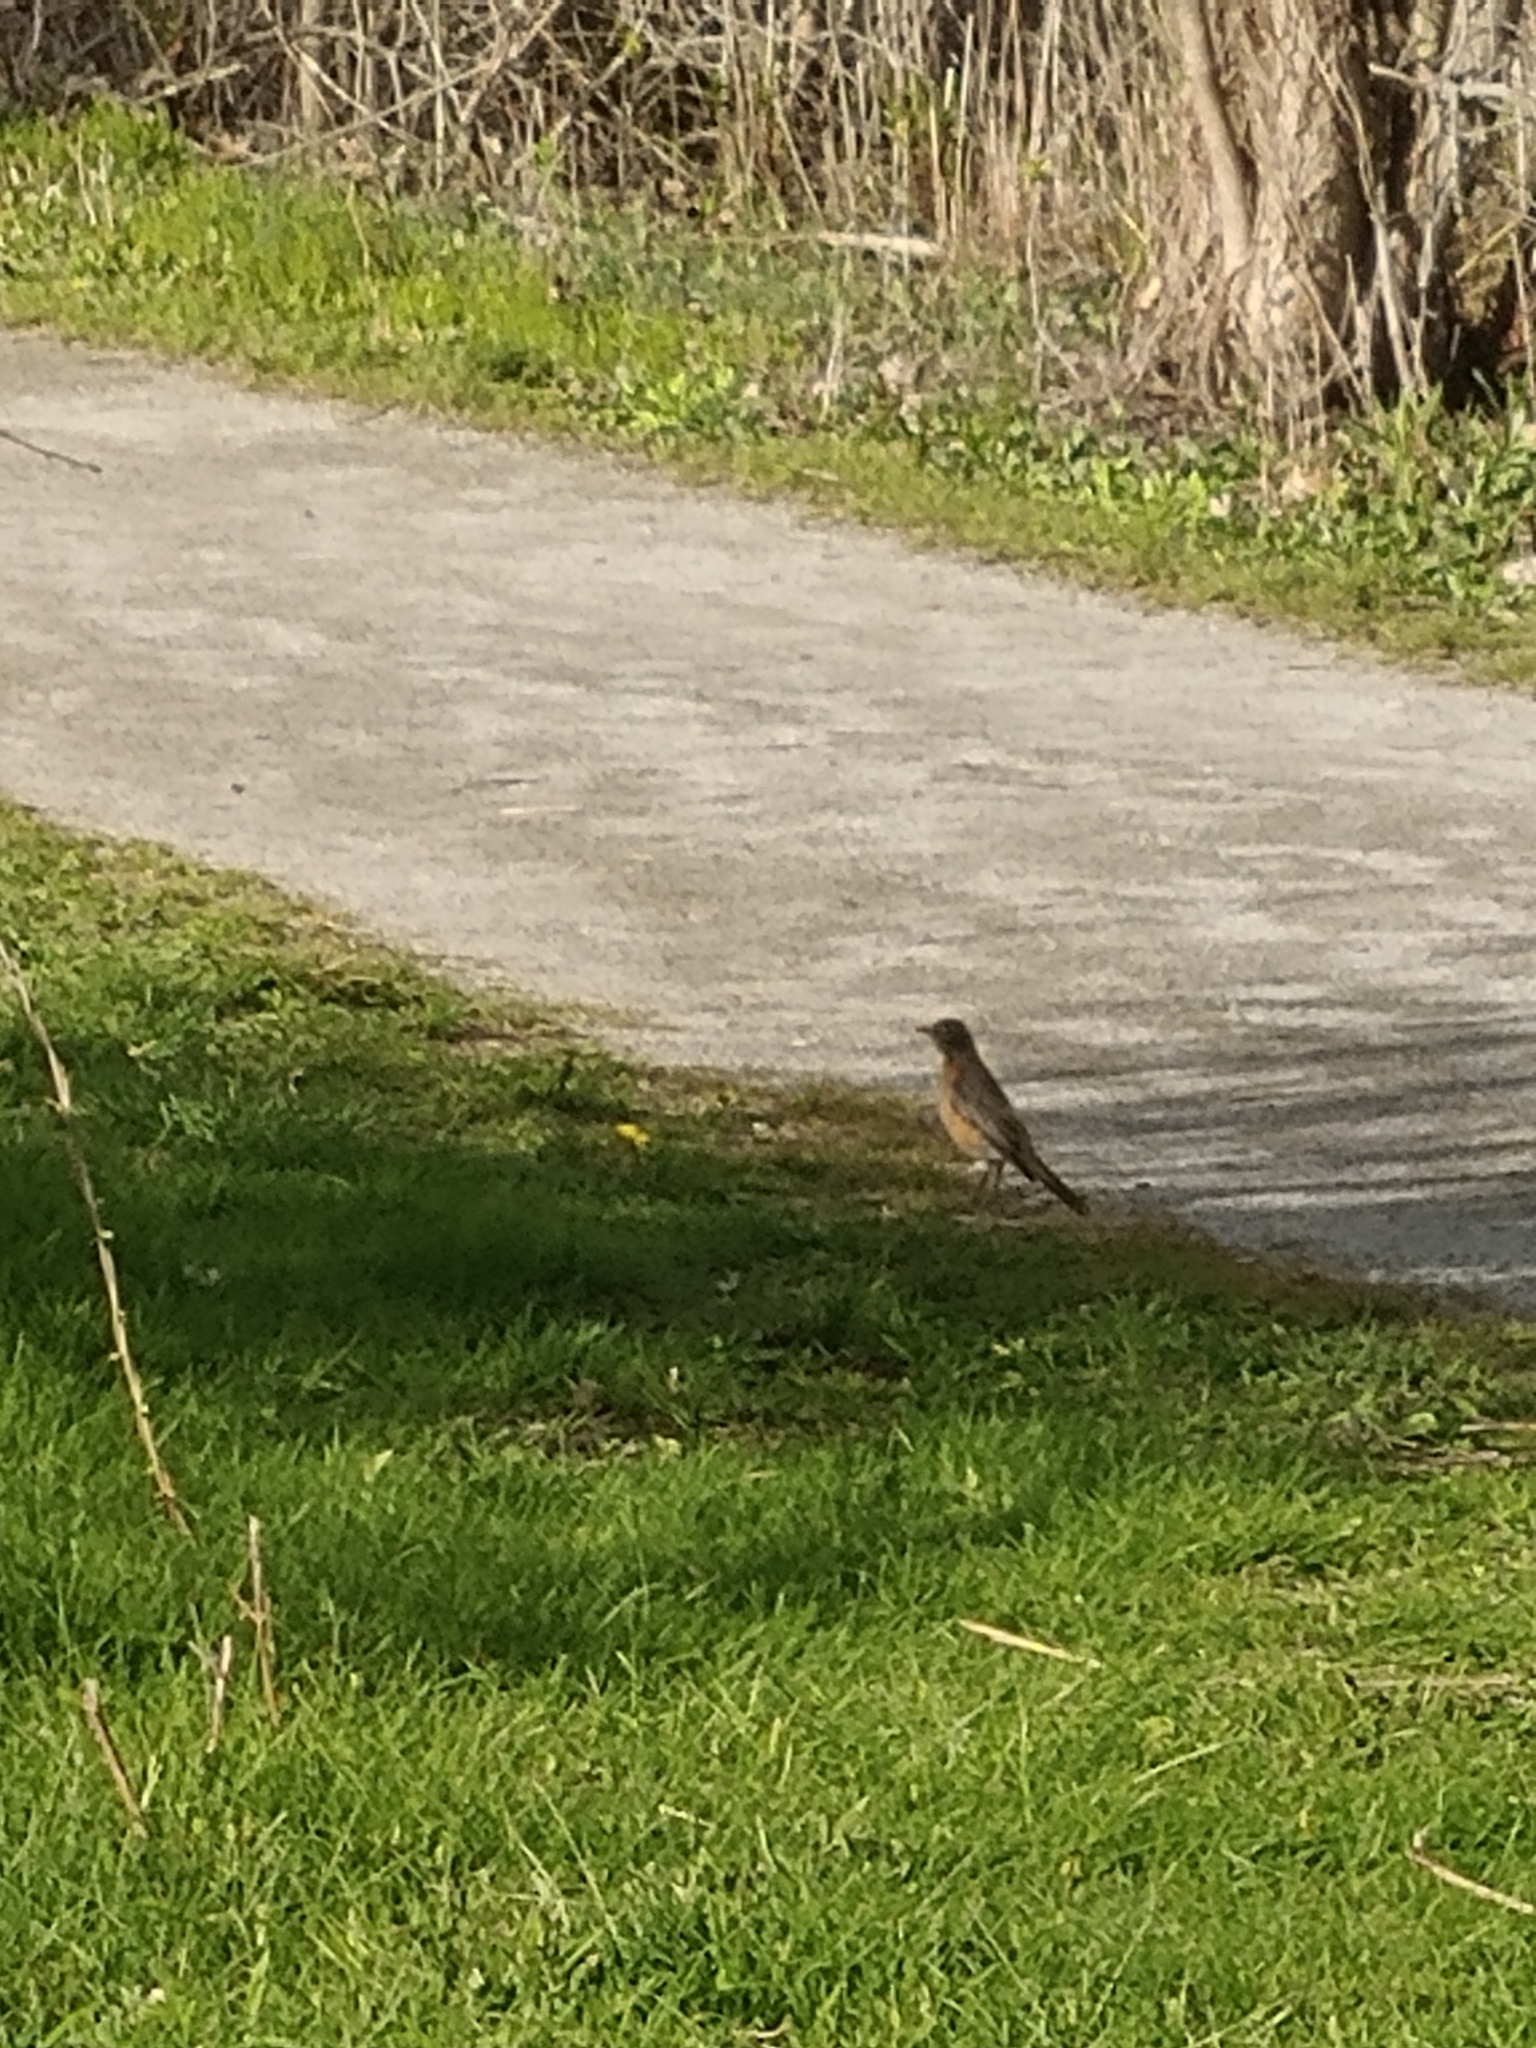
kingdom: Animalia
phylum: Chordata
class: Aves
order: Passeriformes
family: Turdidae
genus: Turdus
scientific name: Turdus migratorius
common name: American robin
